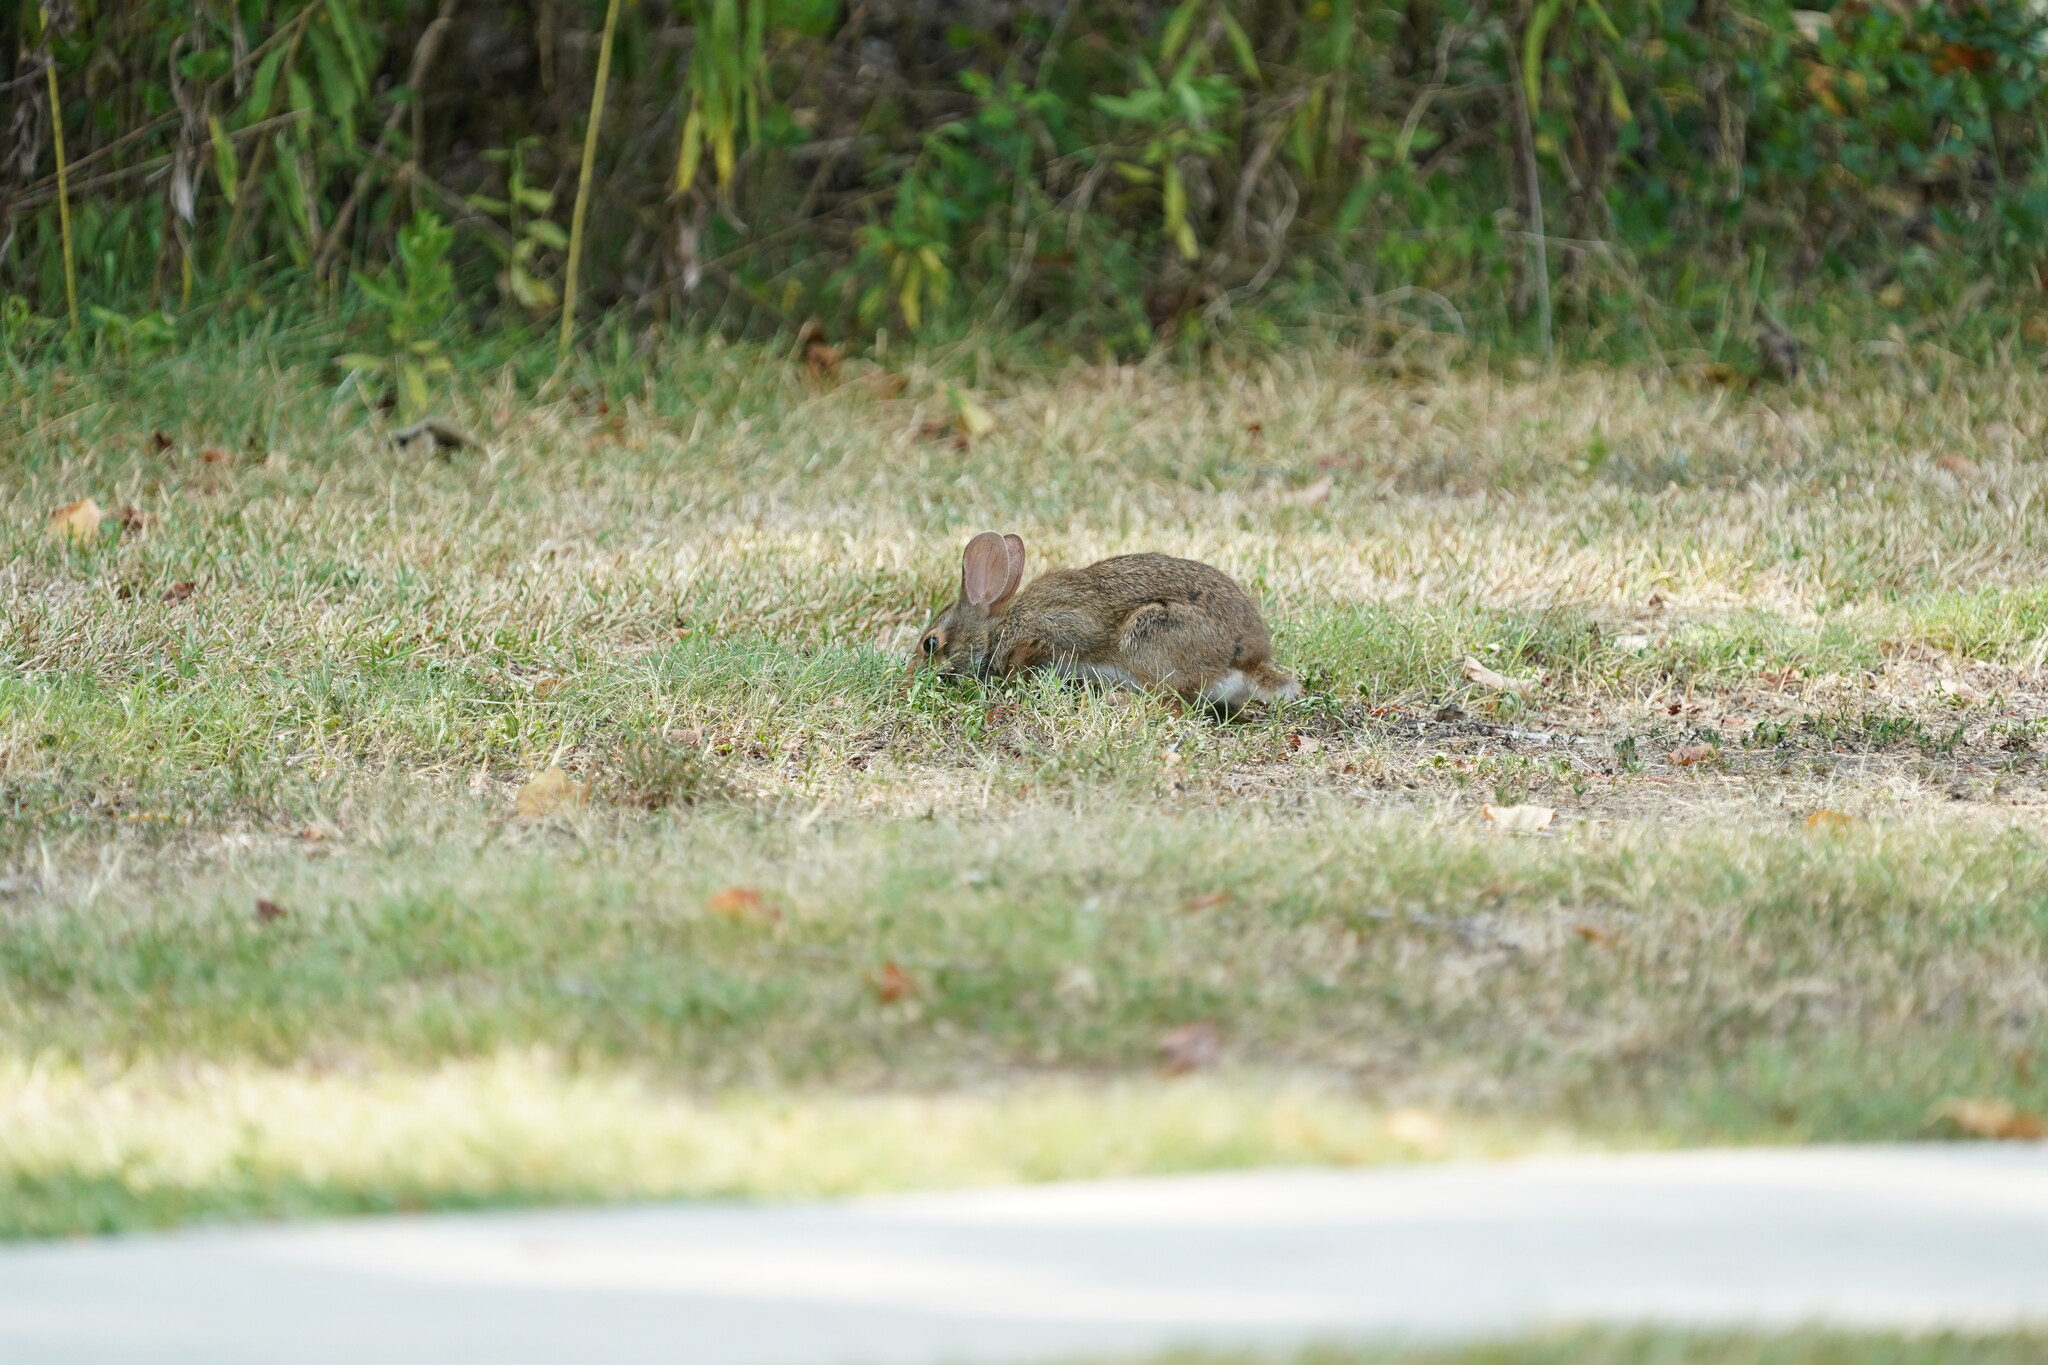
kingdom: Animalia
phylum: Chordata
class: Mammalia
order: Lagomorpha
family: Leporidae
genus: Sylvilagus
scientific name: Sylvilagus aquaticus
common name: Swamp rabbit
